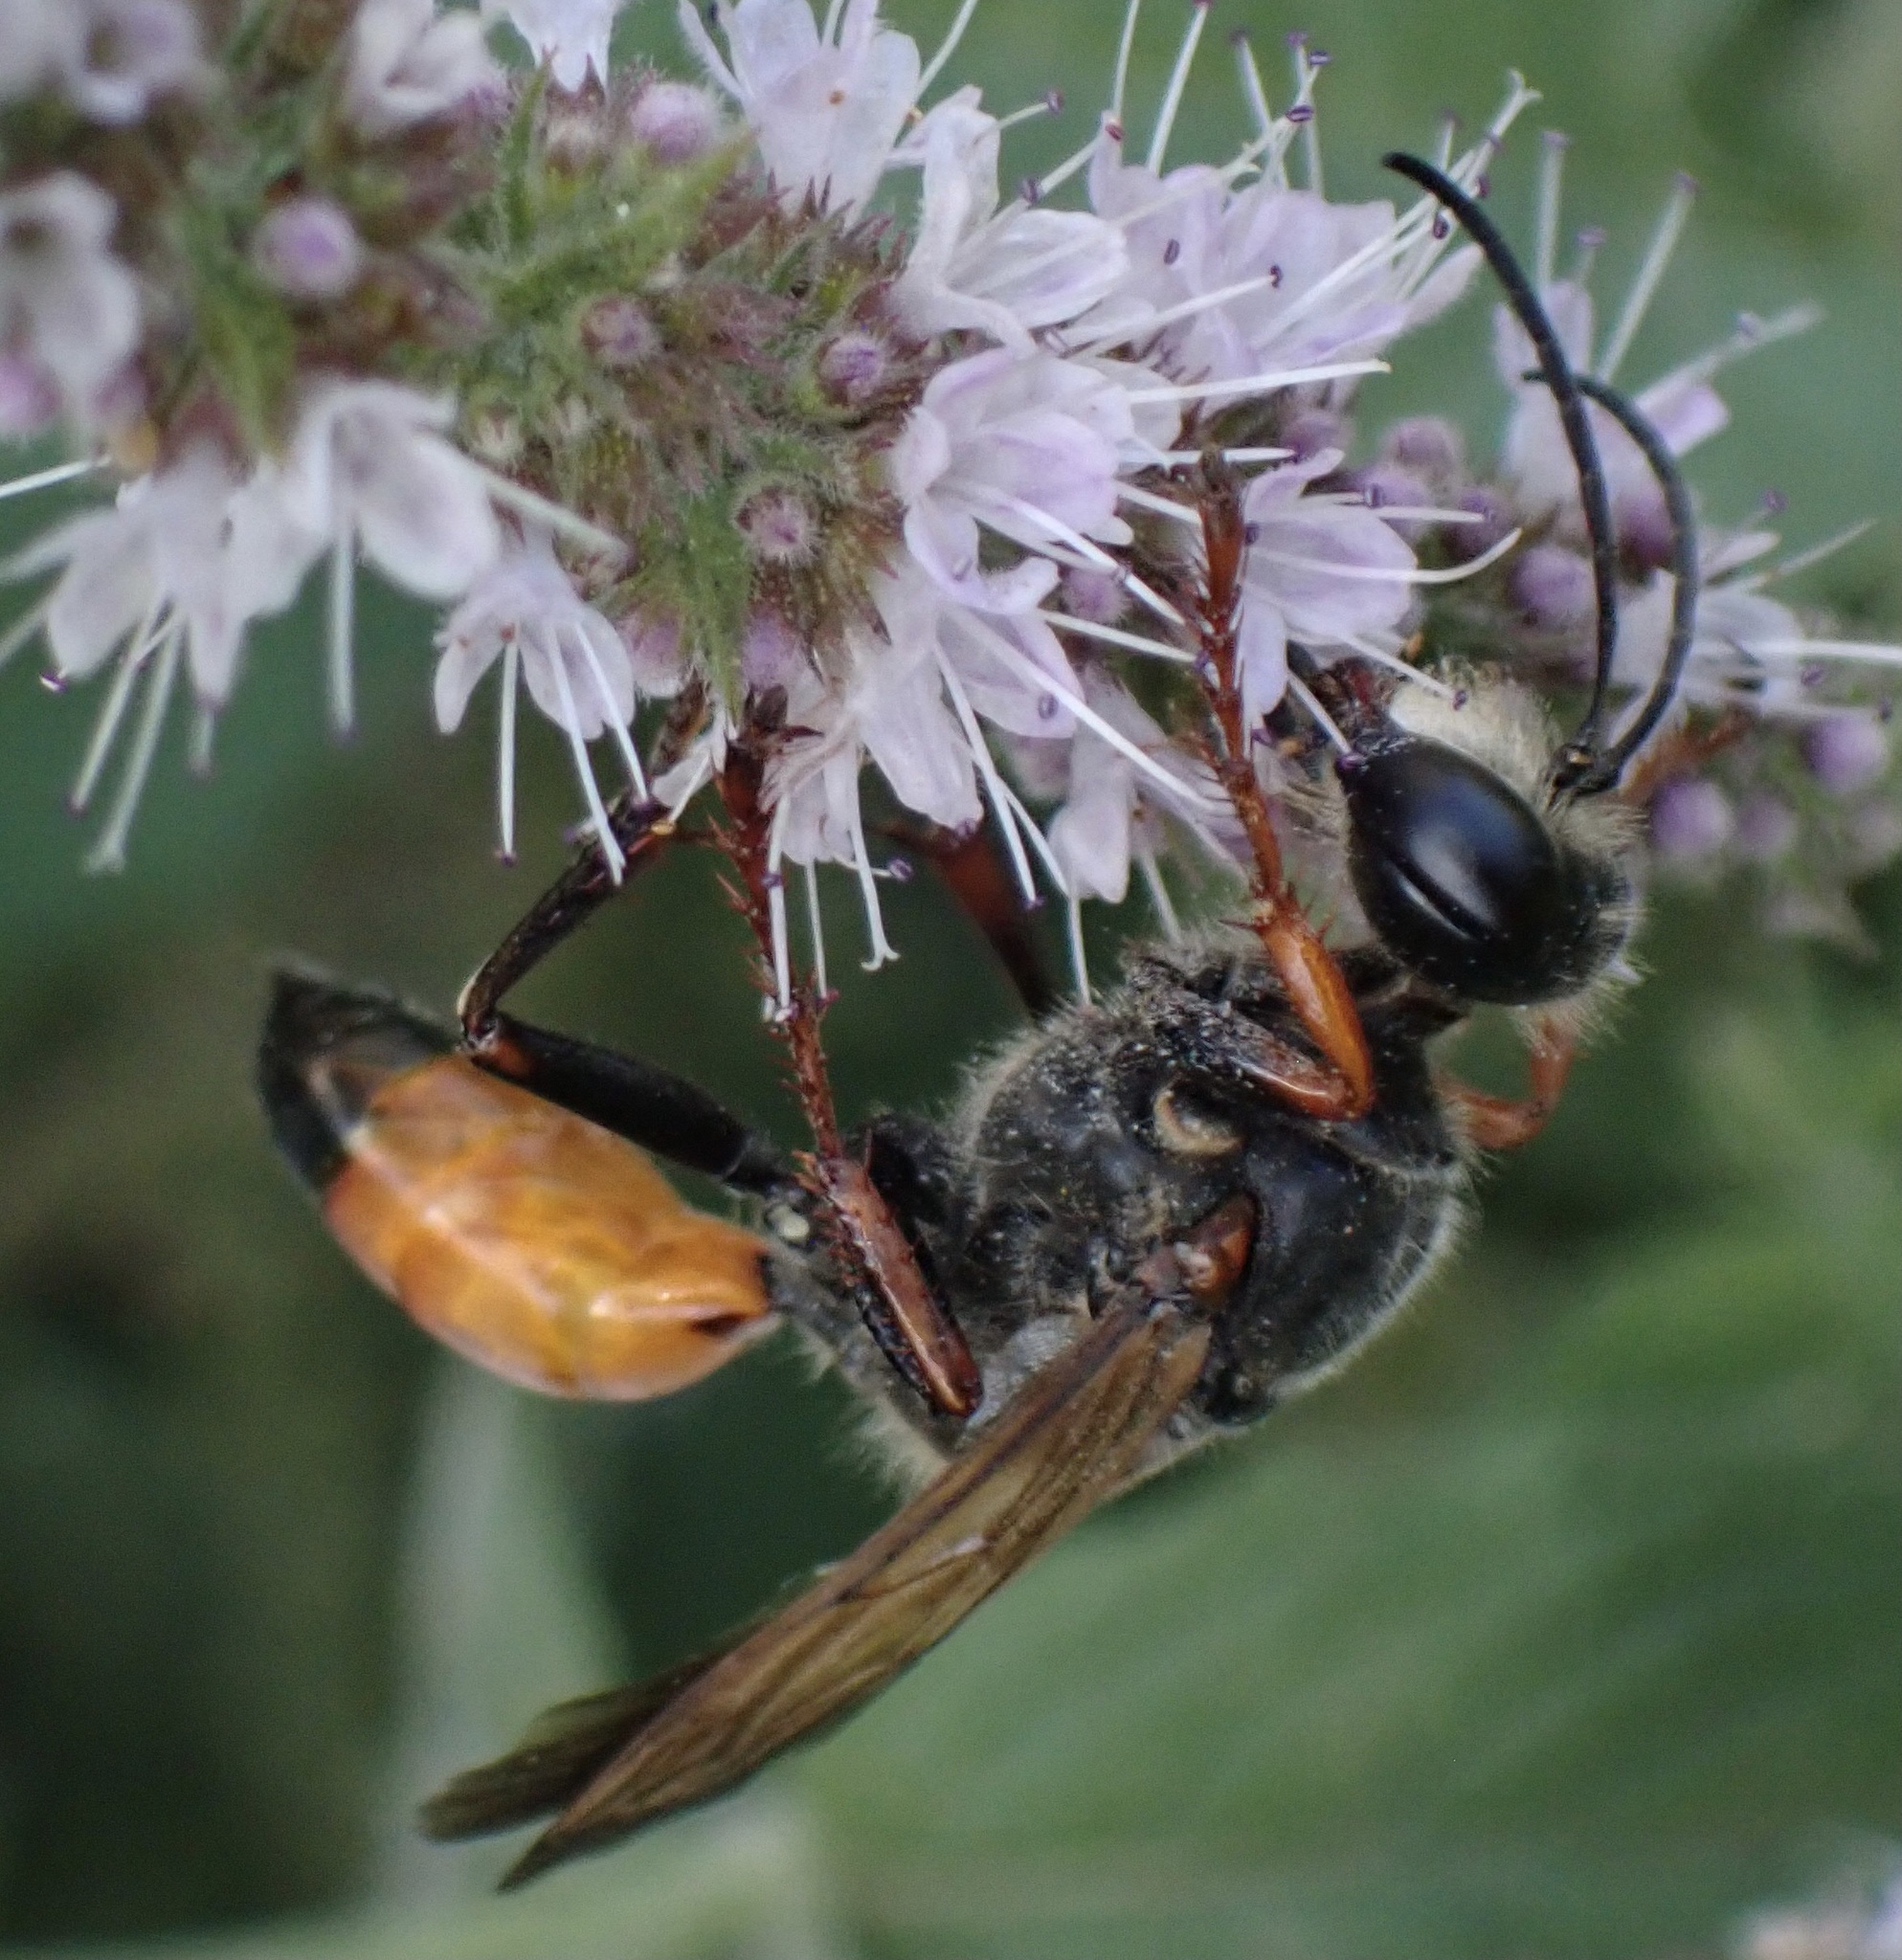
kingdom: Animalia
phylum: Arthropoda
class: Insecta
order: Hymenoptera
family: Sphecidae
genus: Sphex
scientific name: Sphex funerarius
